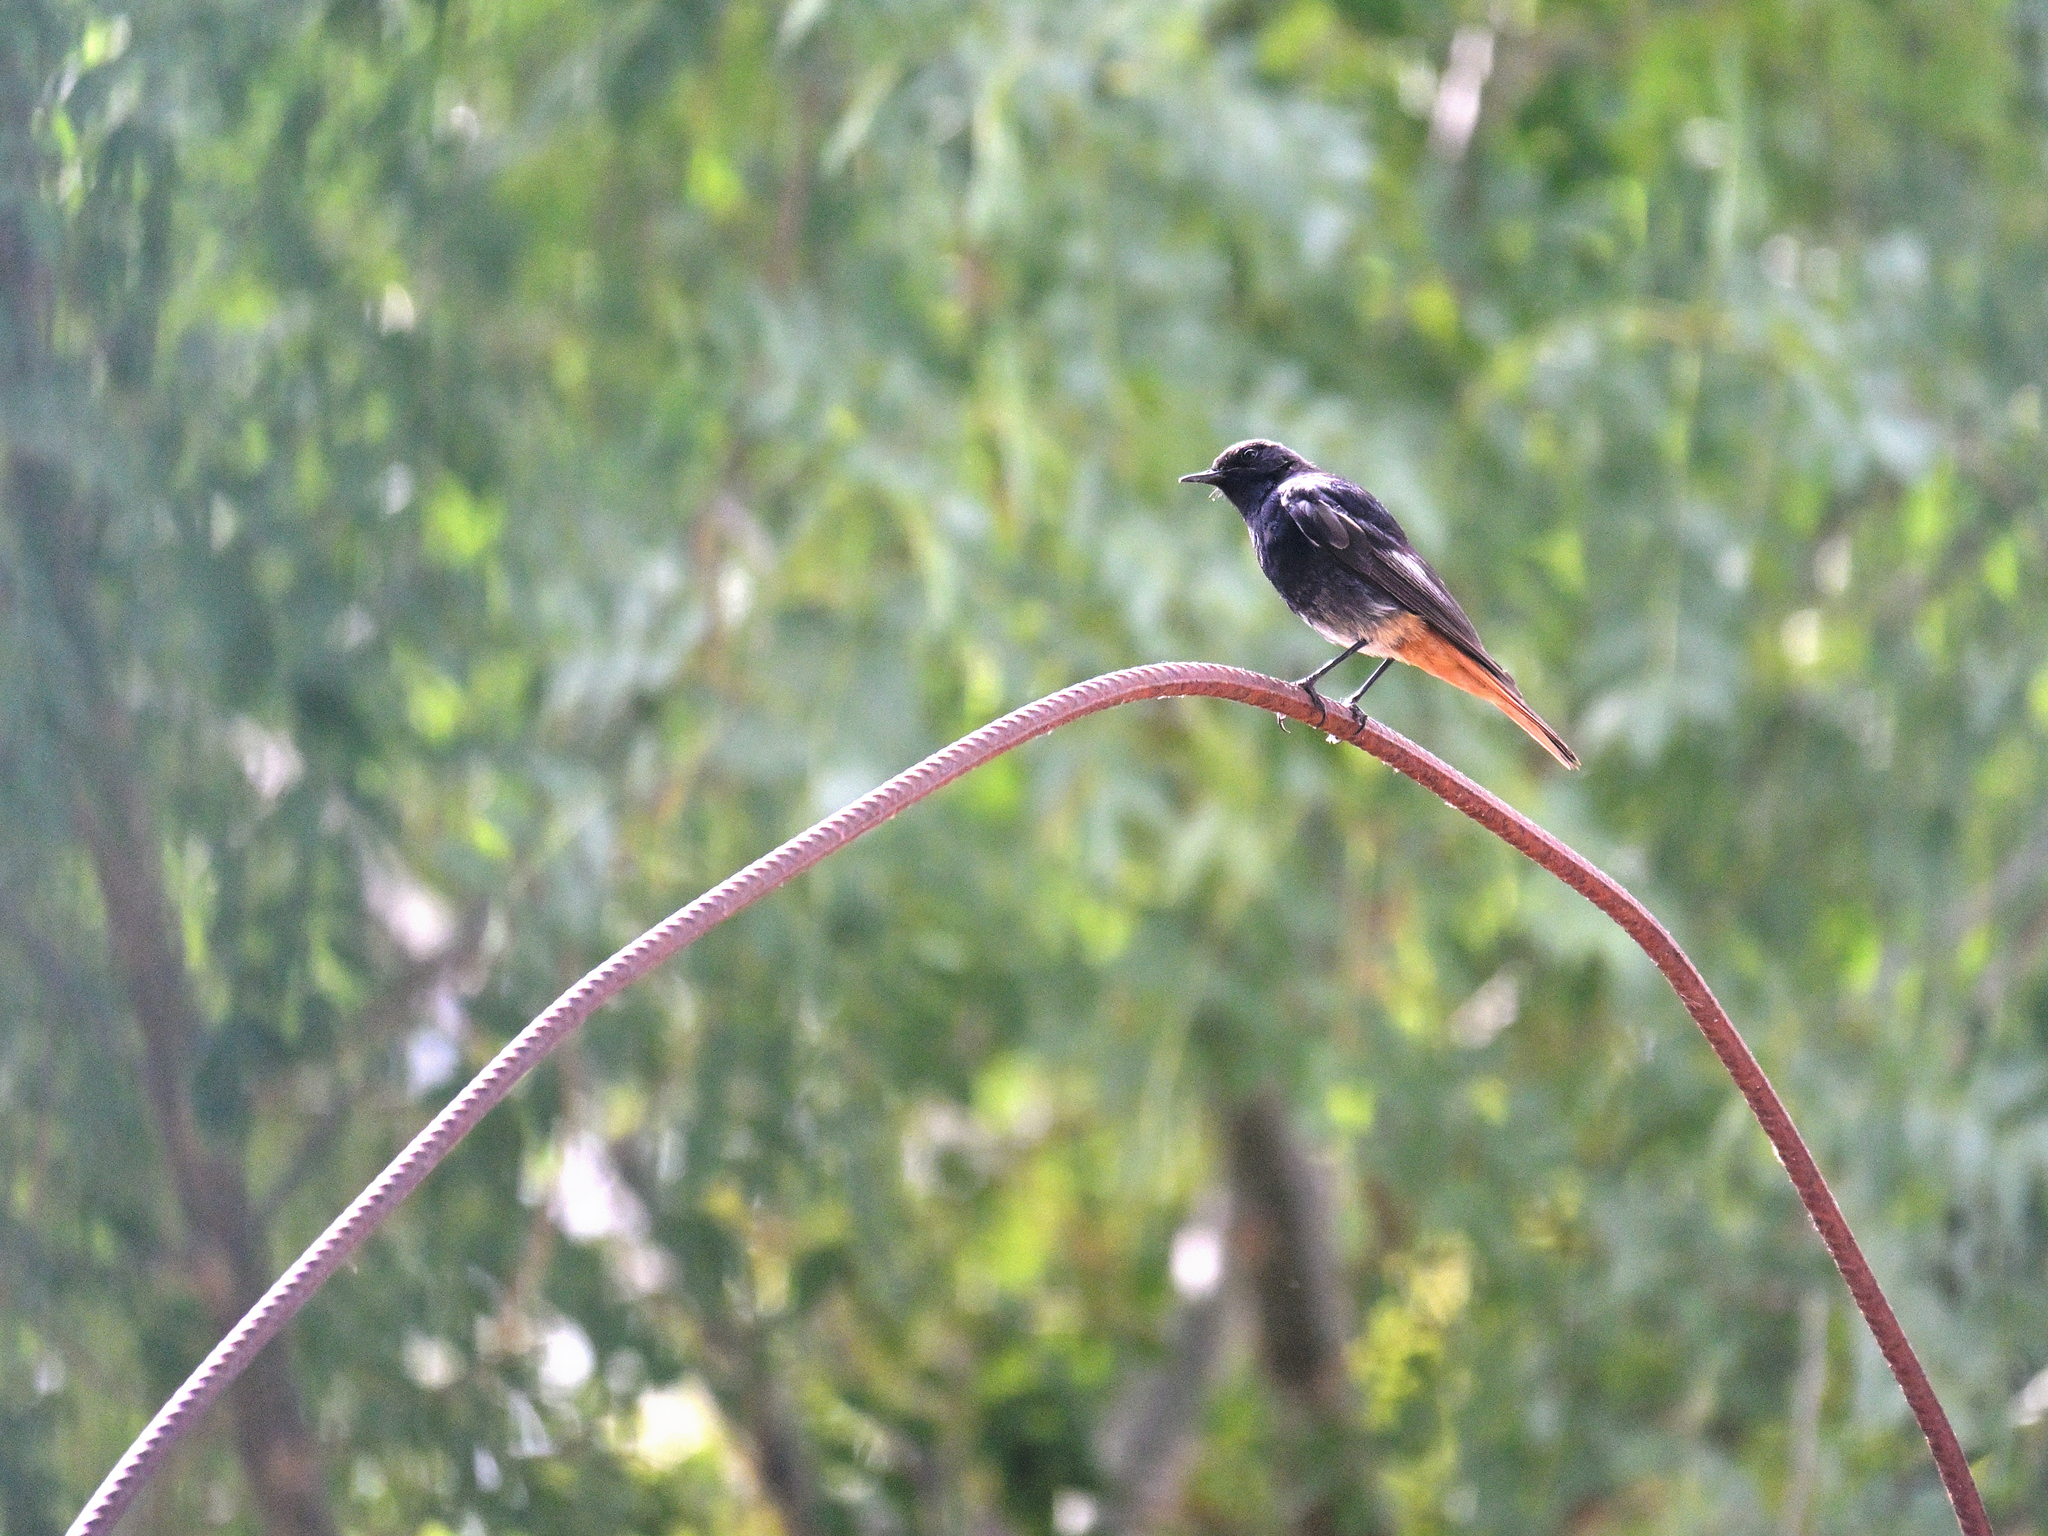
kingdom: Animalia
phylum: Chordata
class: Aves
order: Passeriformes
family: Muscicapidae
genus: Phoenicurus
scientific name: Phoenicurus ochruros
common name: Black redstart
